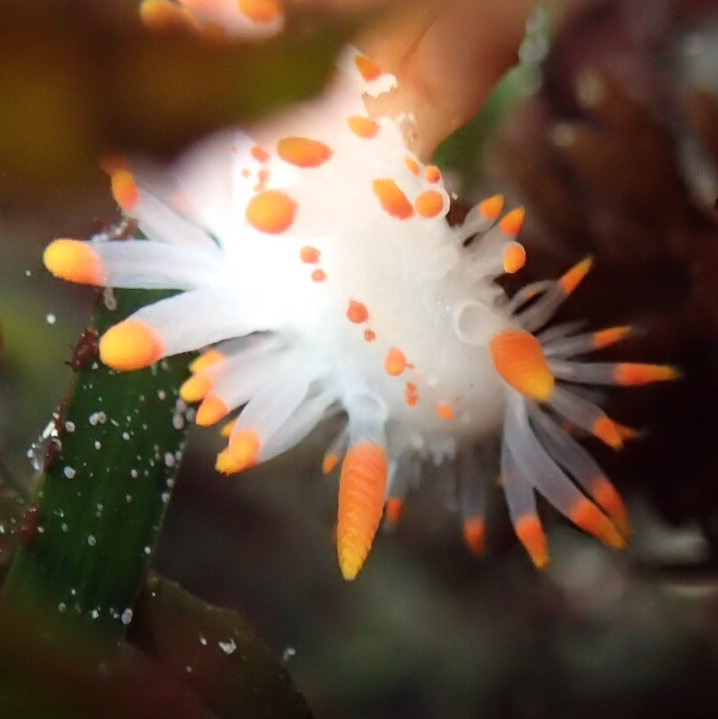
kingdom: Animalia
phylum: Mollusca
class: Gastropoda
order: Nudibranchia
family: Polyceridae
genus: Limacia
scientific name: Limacia mcdonaldi
